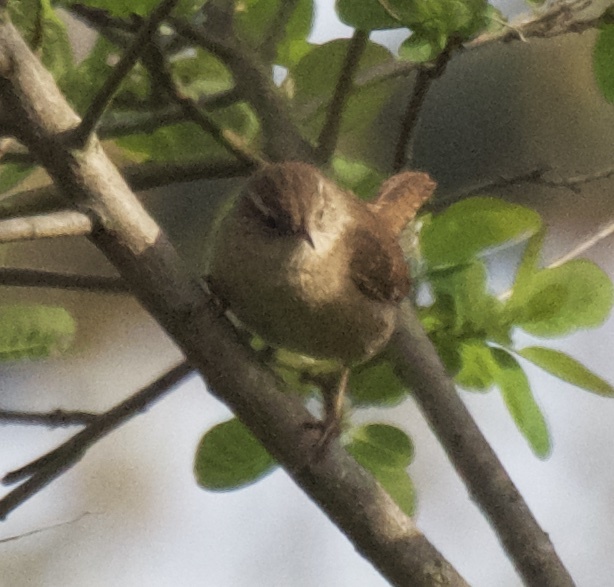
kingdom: Animalia
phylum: Chordata
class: Aves
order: Passeriformes
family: Troglodytidae
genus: Troglodytes
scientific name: Troglodytes troglodytes
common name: Eurasian wren
